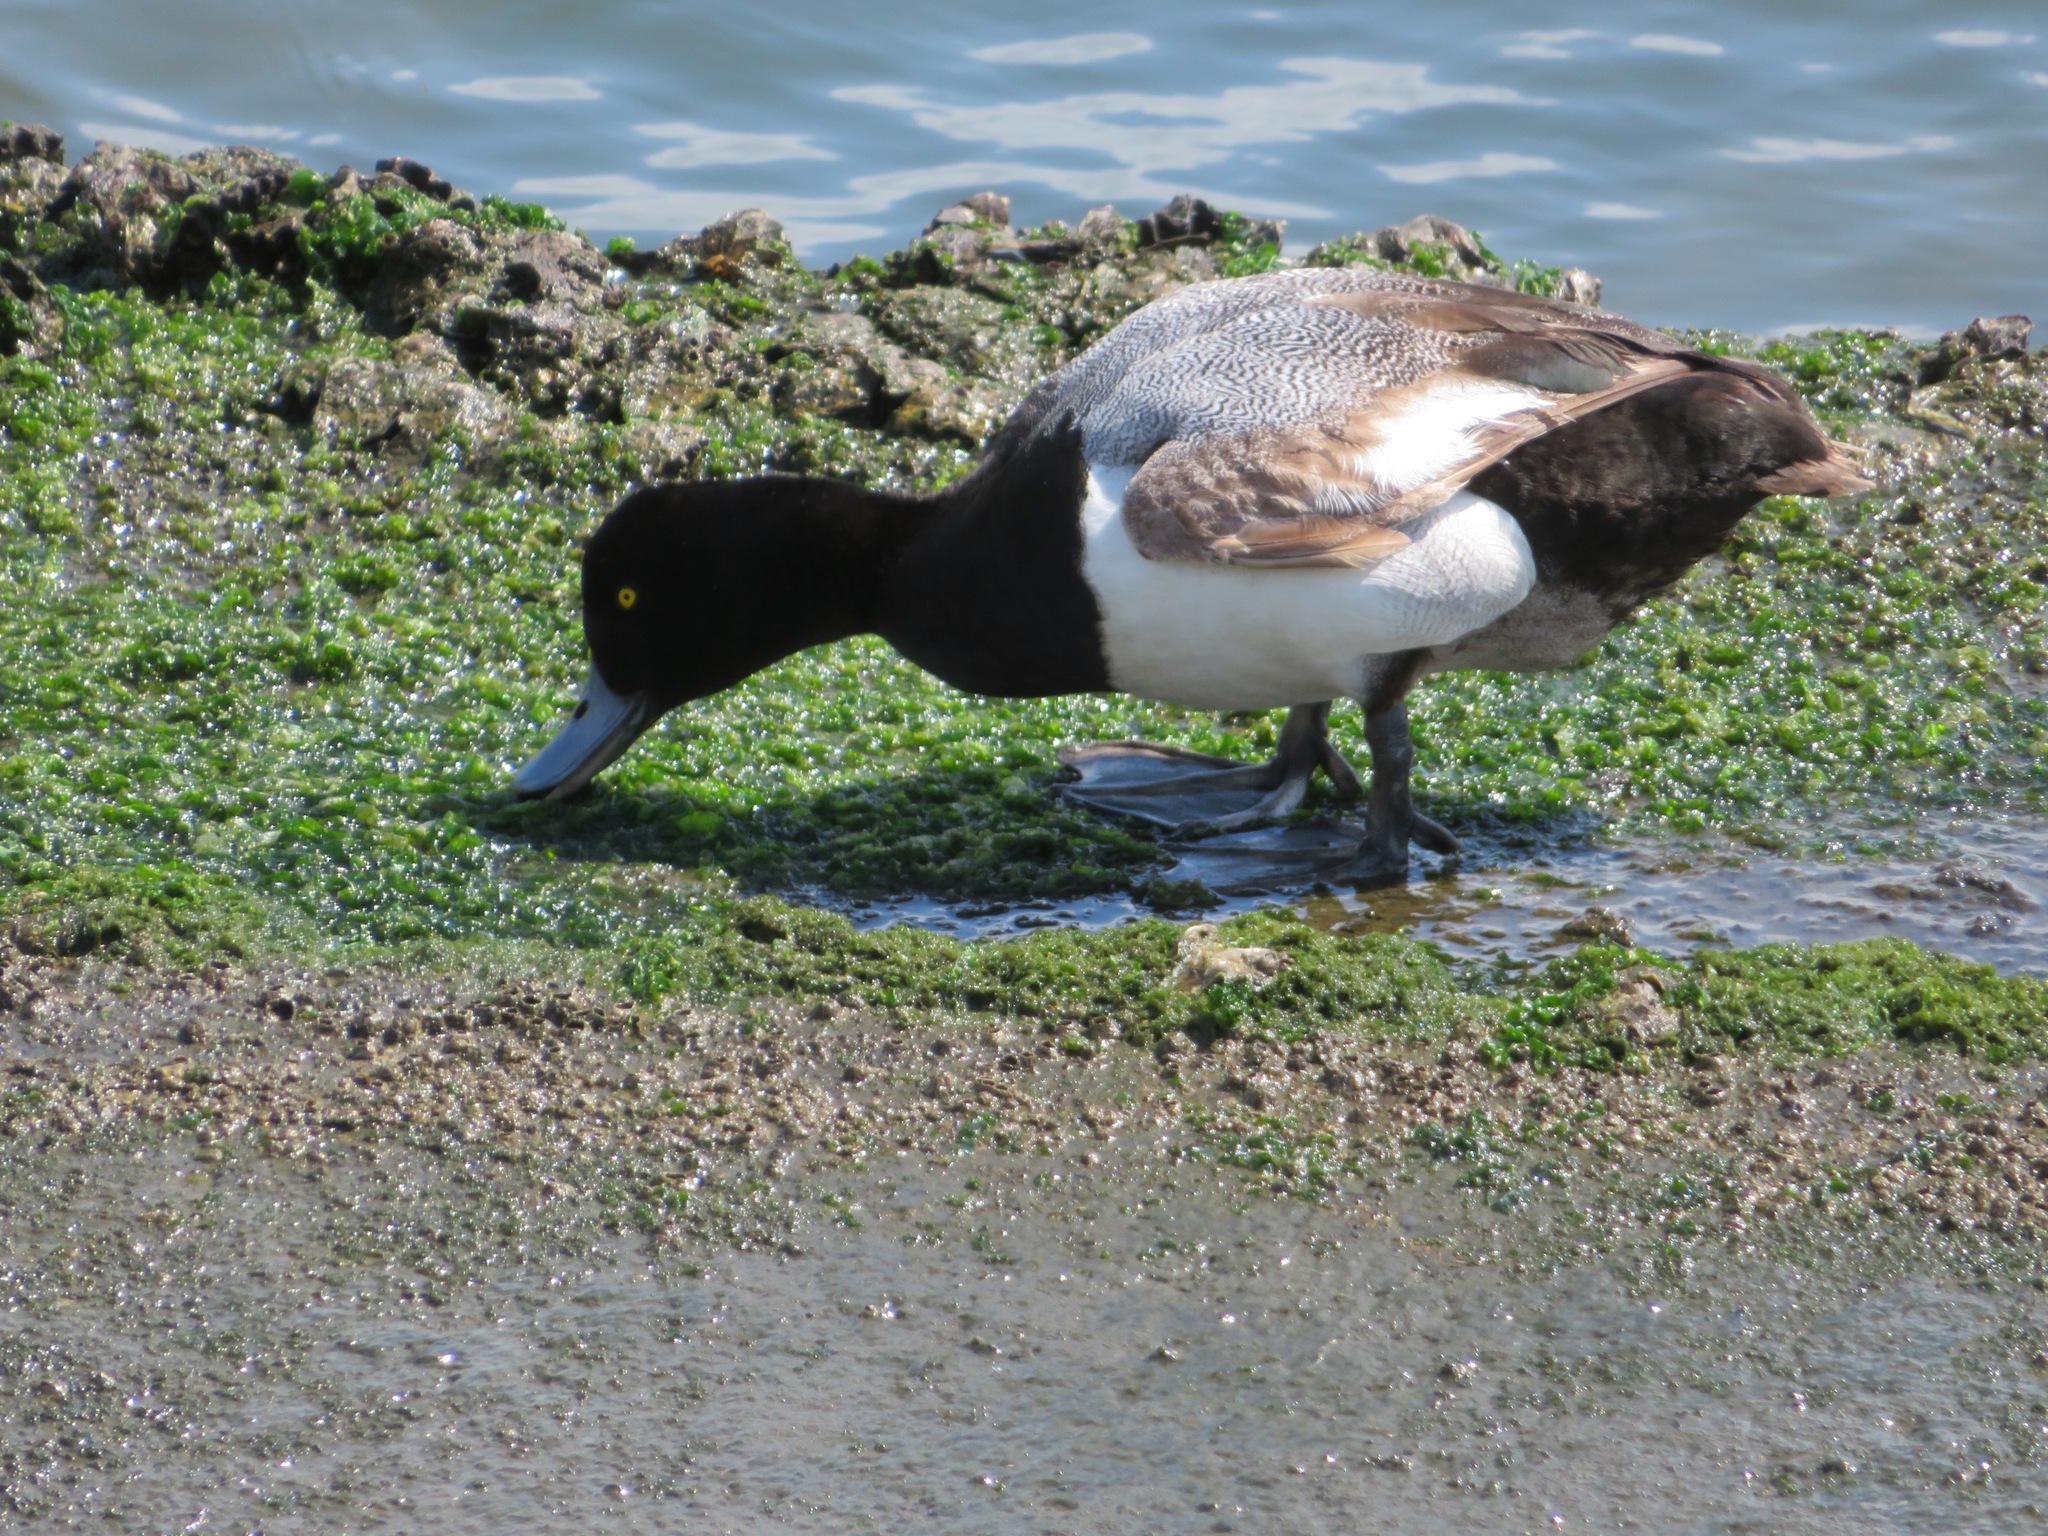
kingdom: Animalia
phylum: Chordata
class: Aves
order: Anseriformes
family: Anatidae
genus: Aythya
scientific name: Aythya marila
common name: Greater scaup
